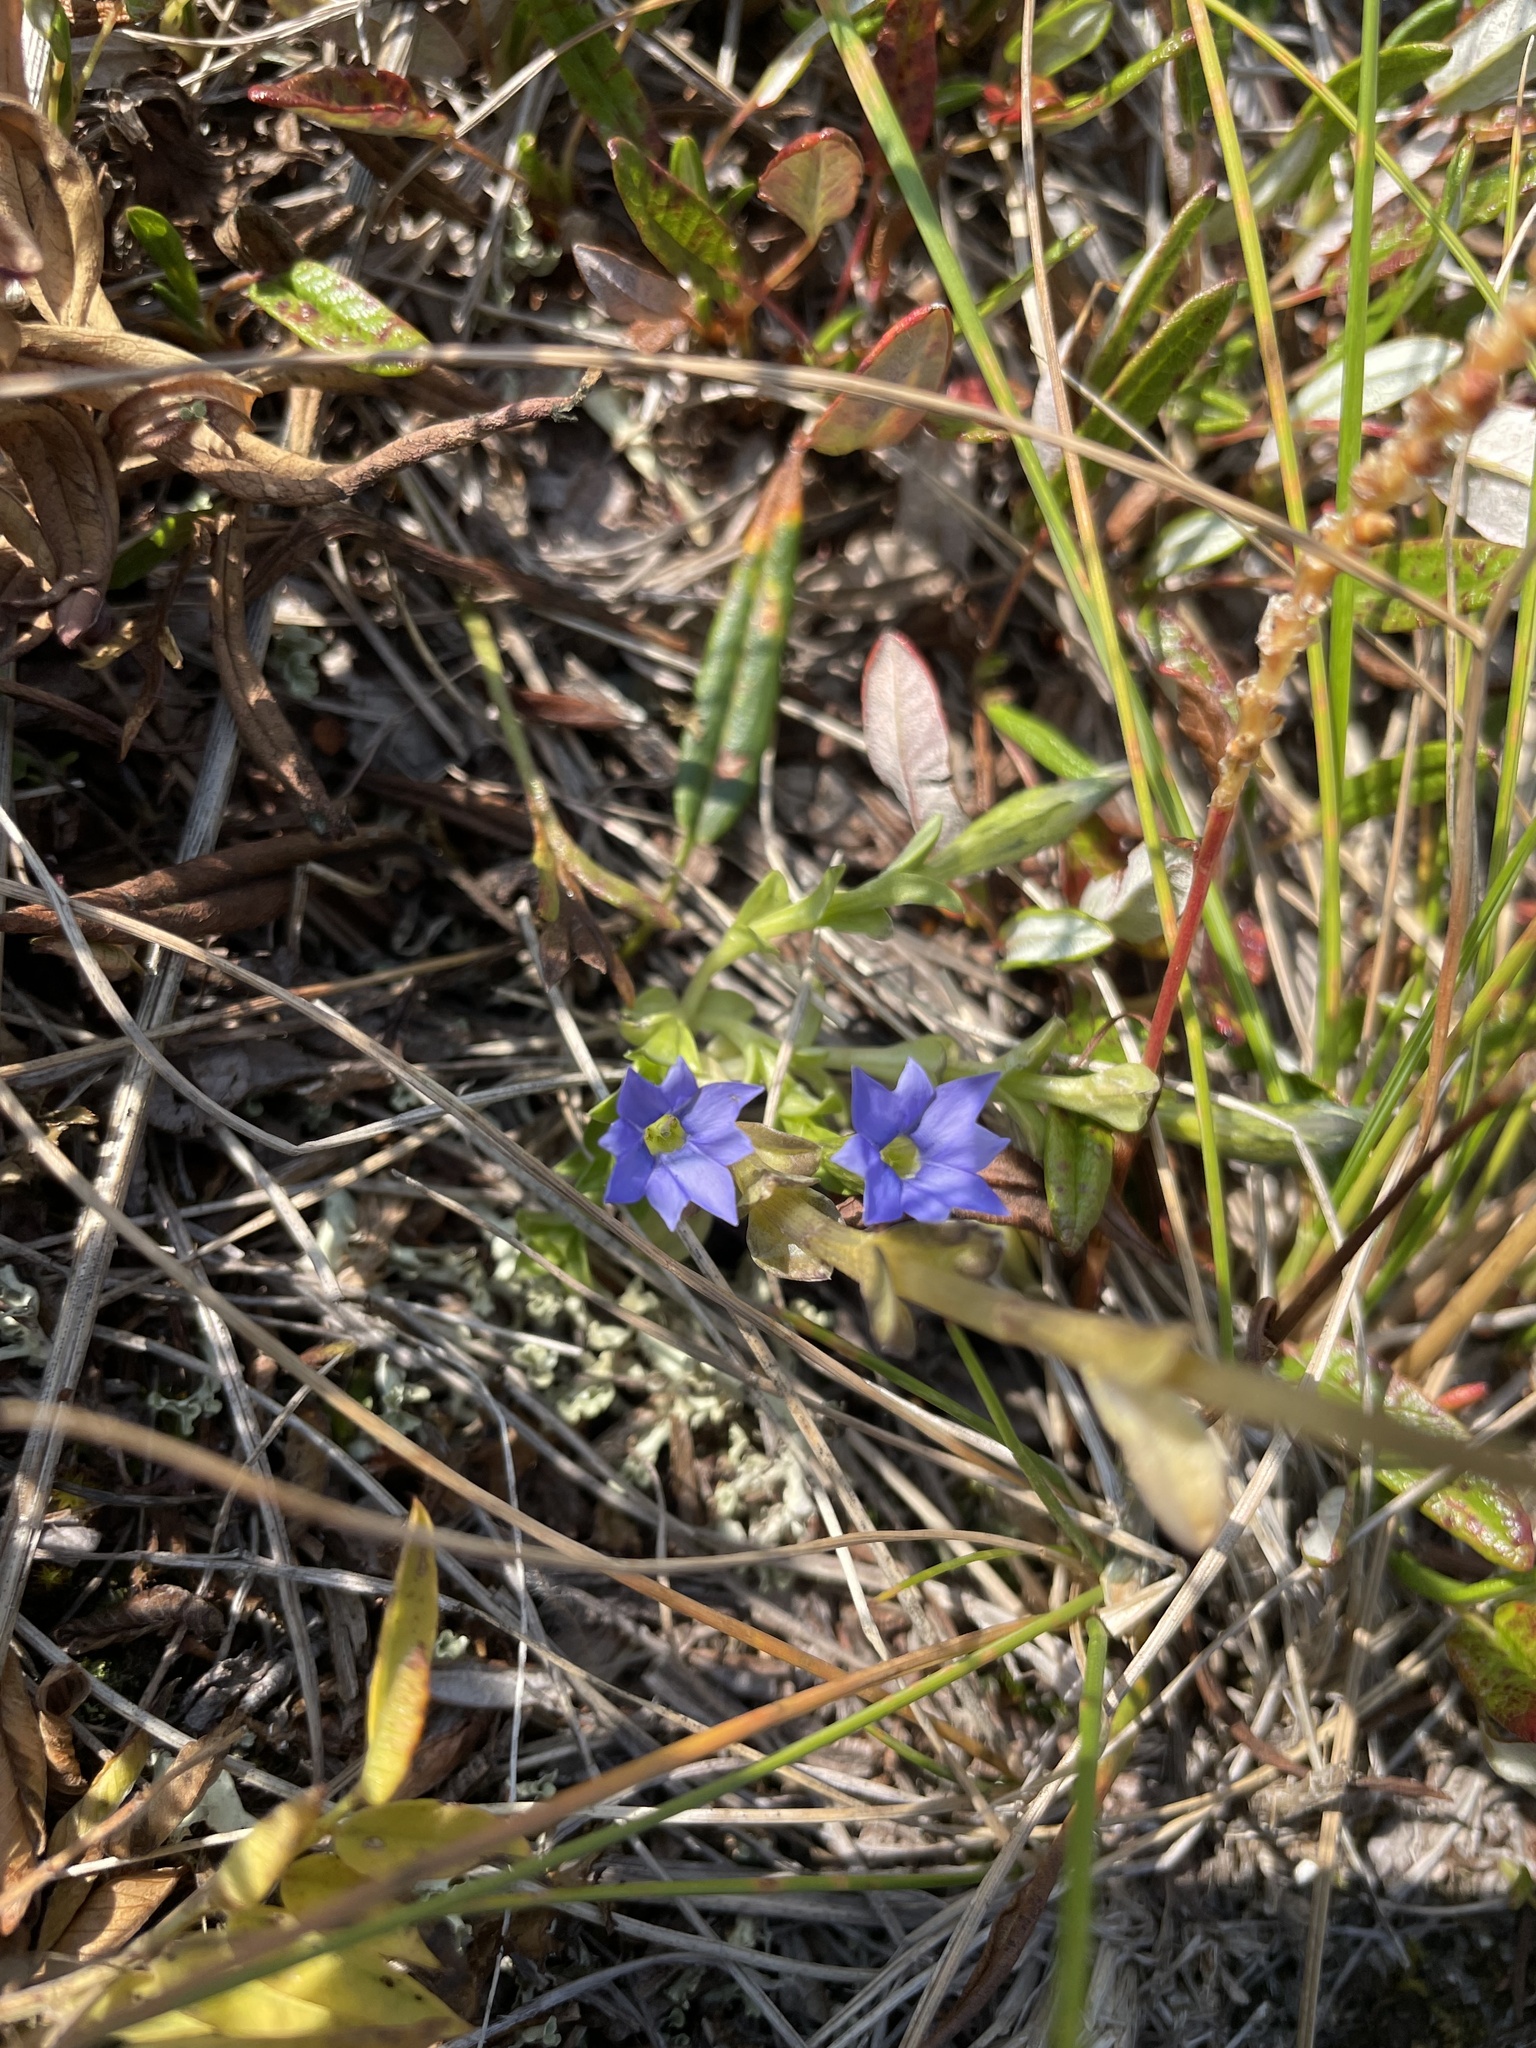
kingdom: Plantae
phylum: Tracheophyta
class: Magnoliopsida
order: Gentianales
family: Gentianaceae
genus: Gentiana
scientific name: Gentiana prostrata
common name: Moss gentian
